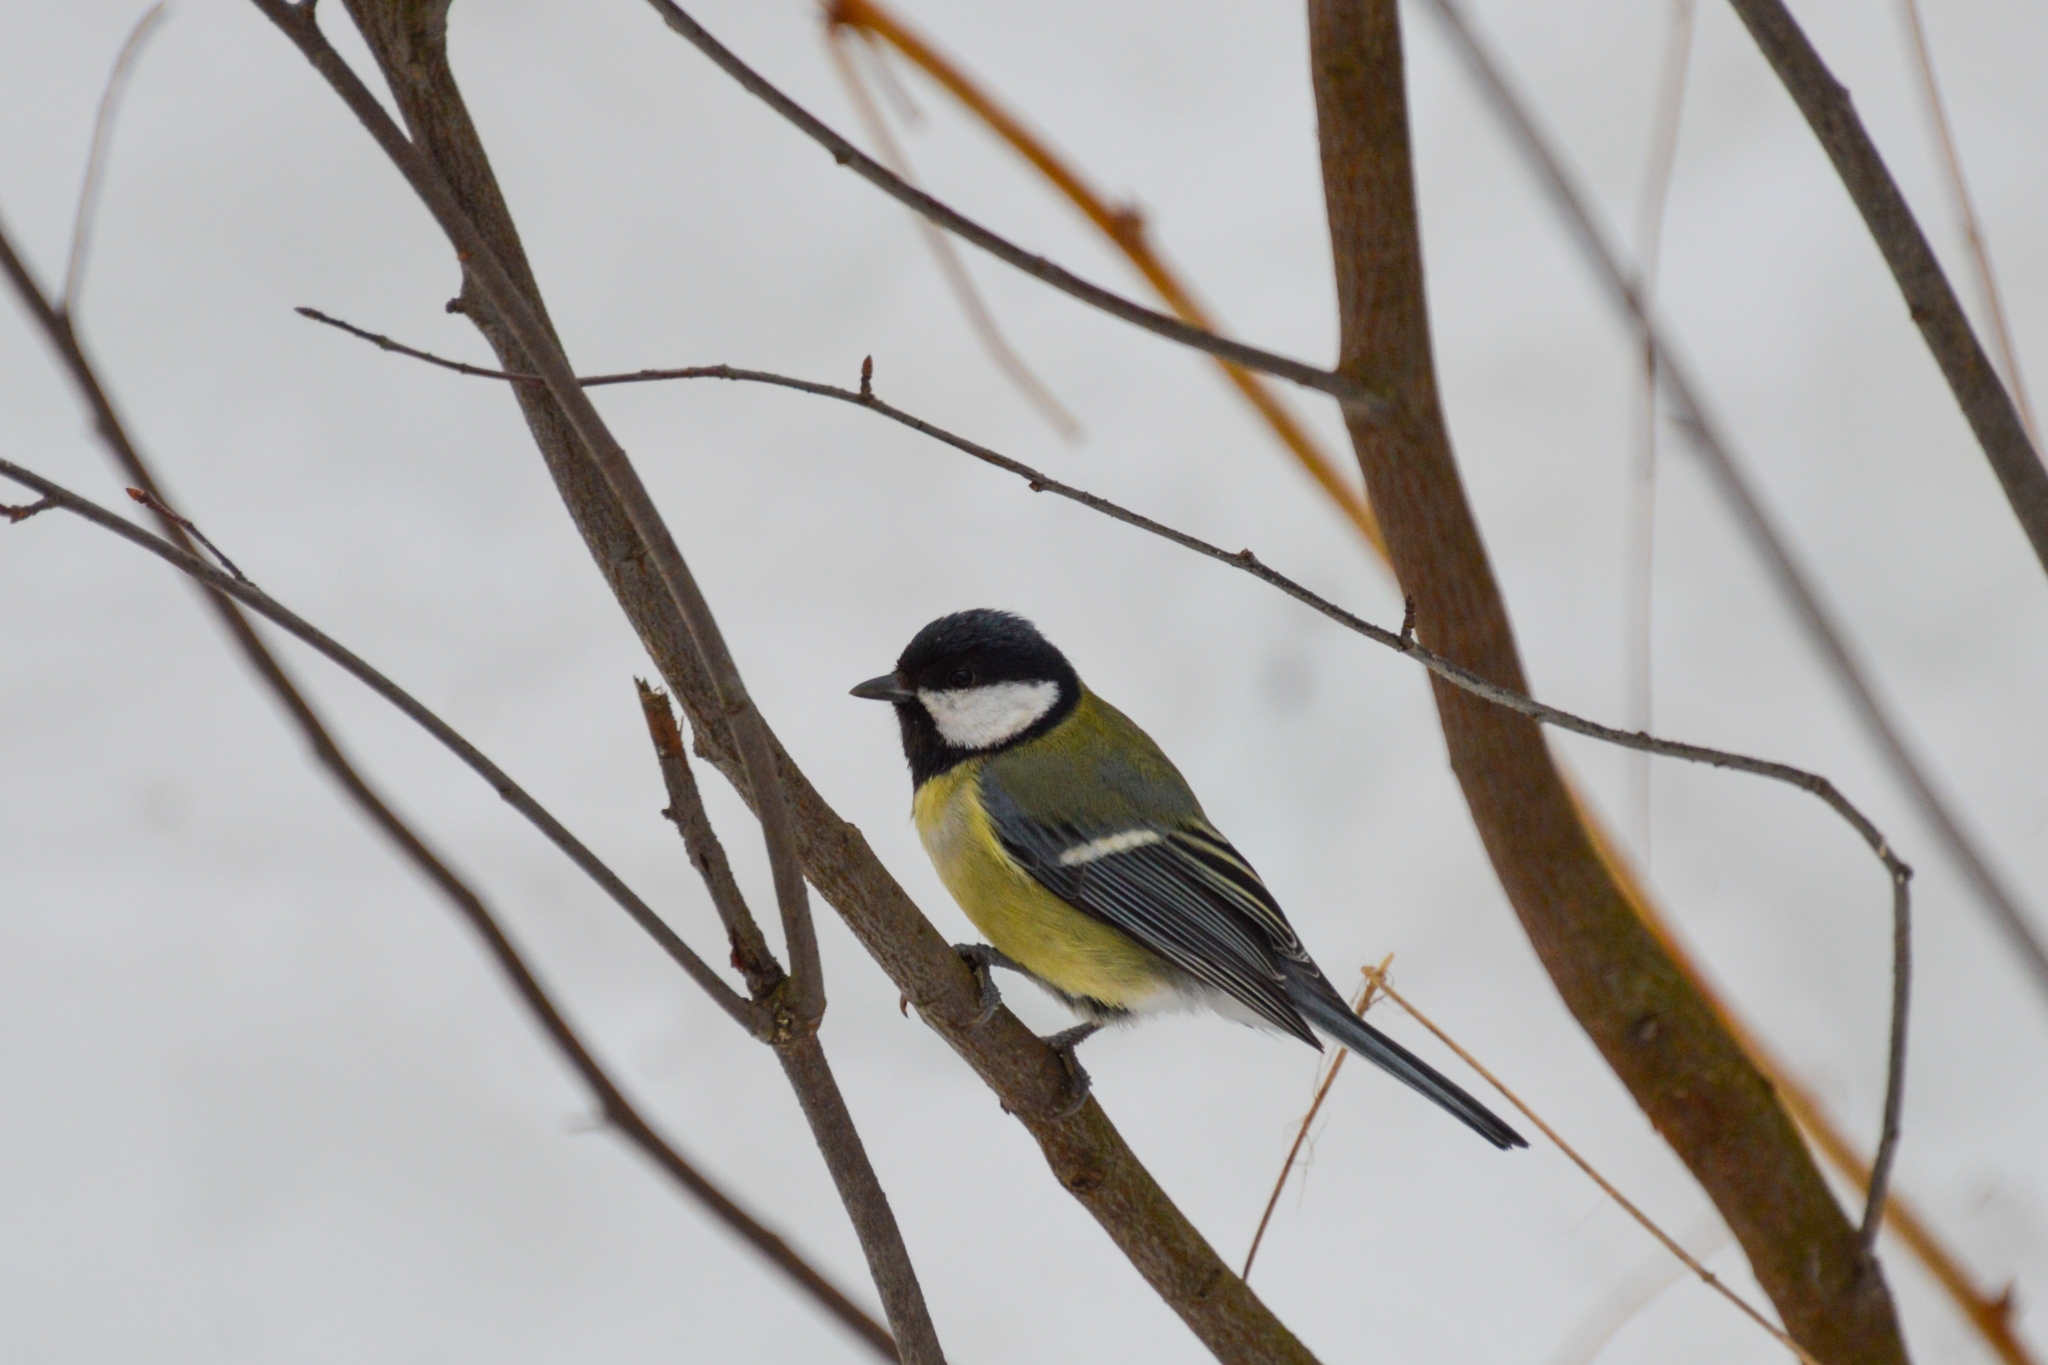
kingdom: Animalia
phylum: Chordata
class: Aves
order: Passeriformes
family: Paridae
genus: Parus
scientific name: Parus major
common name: Great tit
